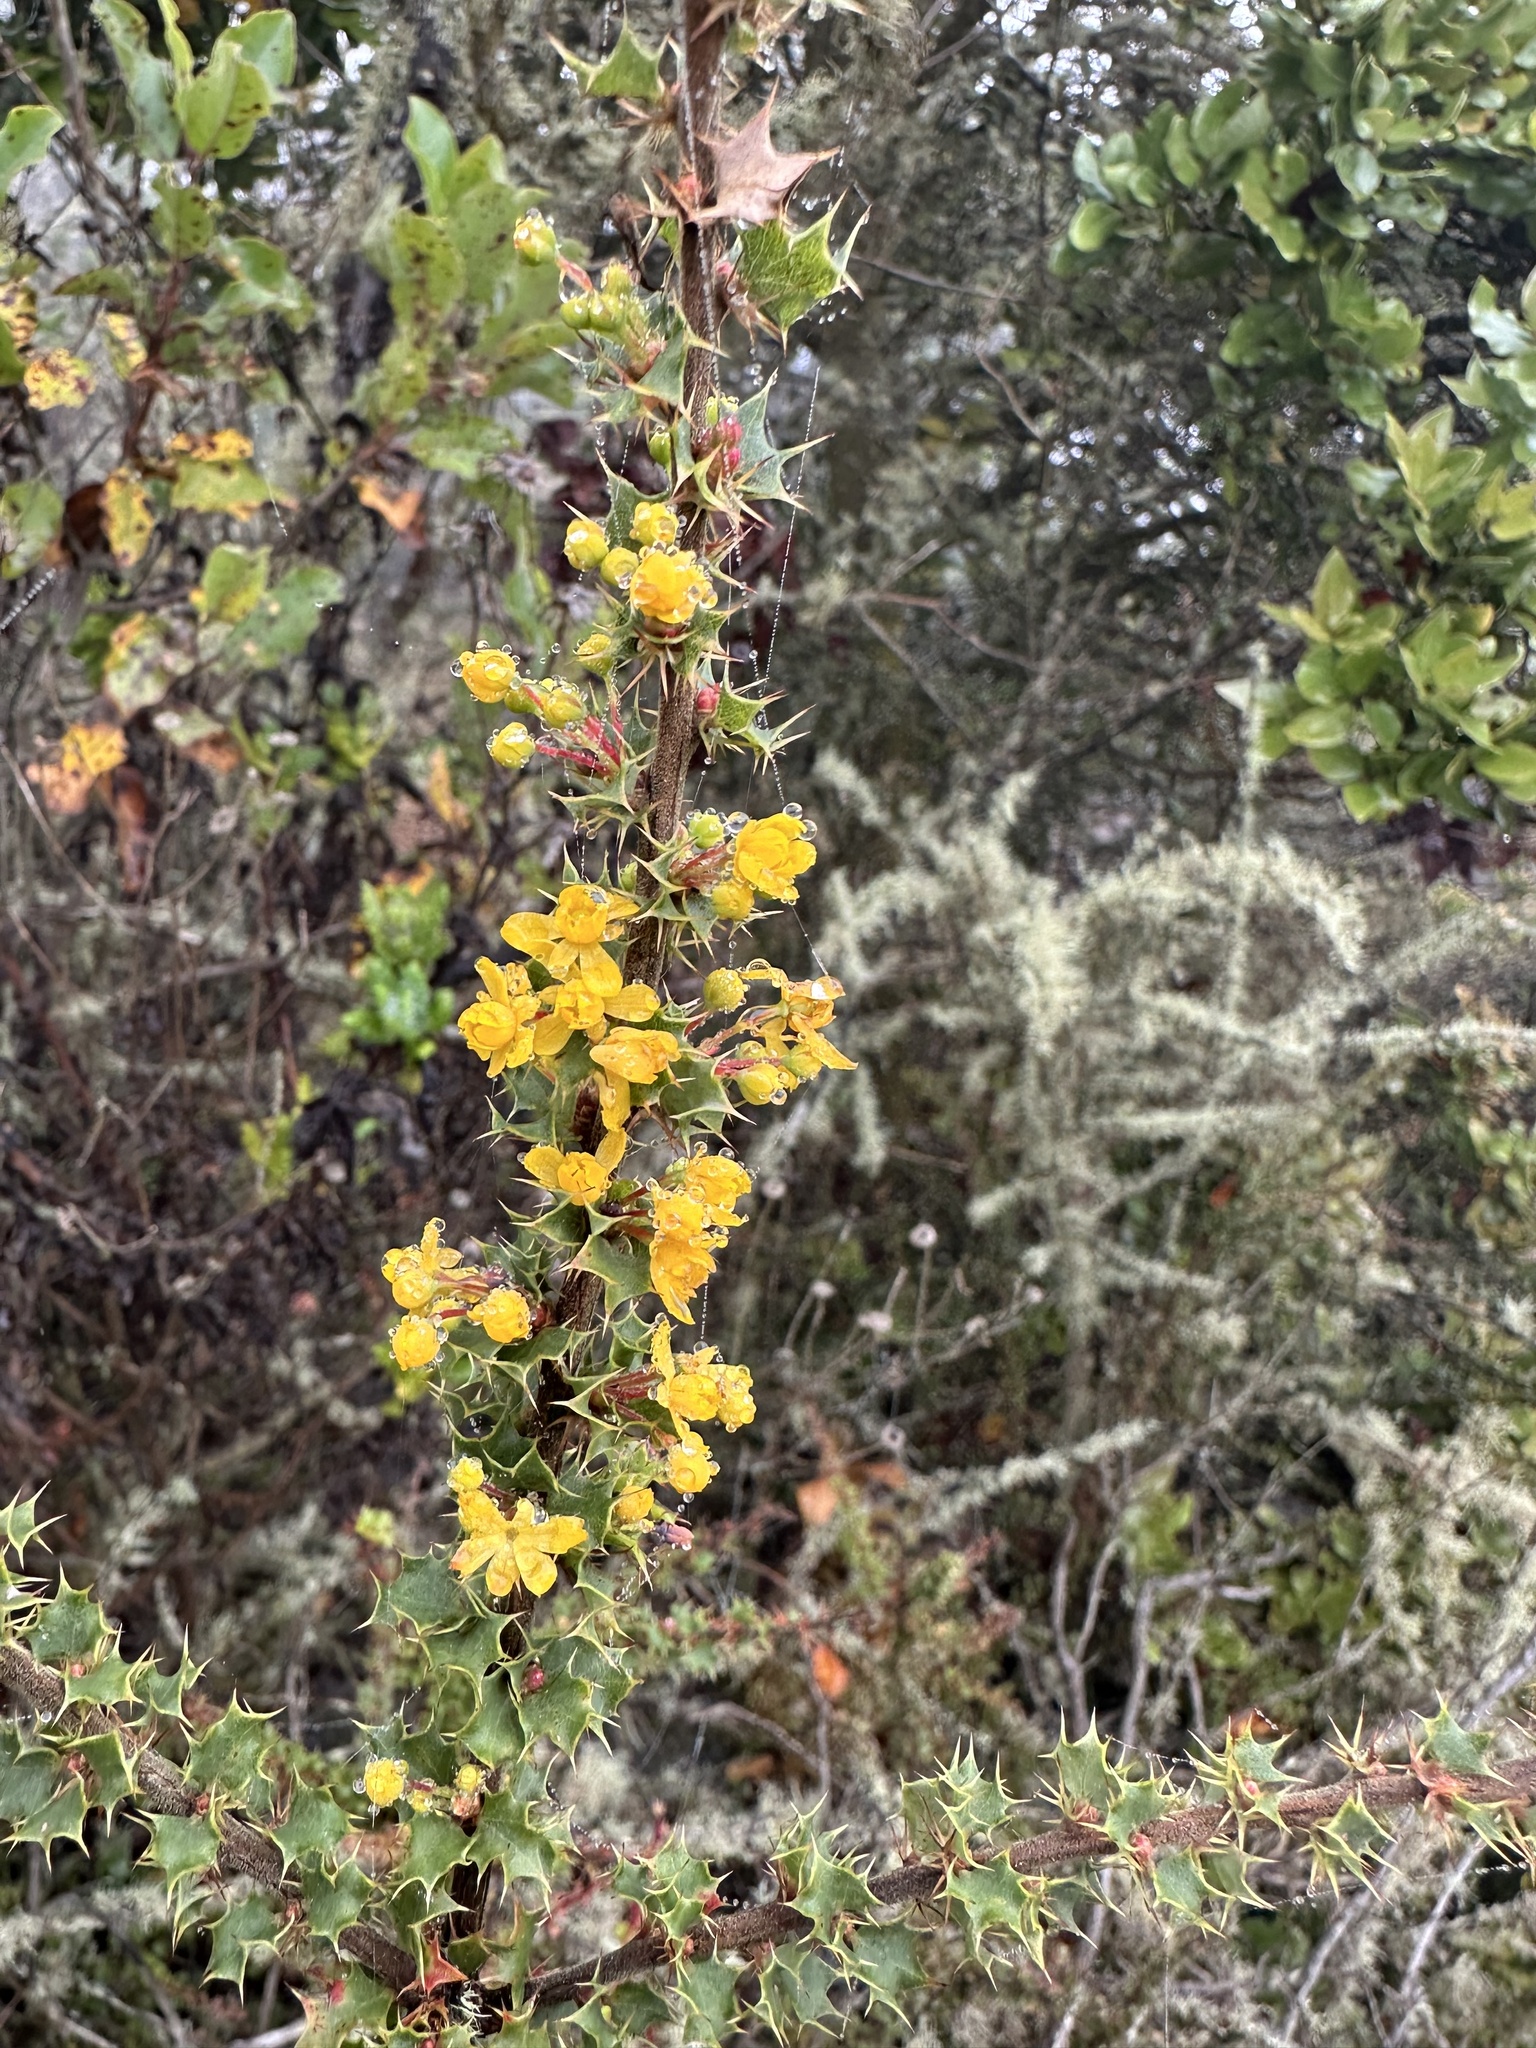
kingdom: Plantae
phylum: Tracheophyta
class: Magnoliopsida
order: Ranunculales
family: Berberidaceae
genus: Berberis
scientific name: Berberis actinacantha
